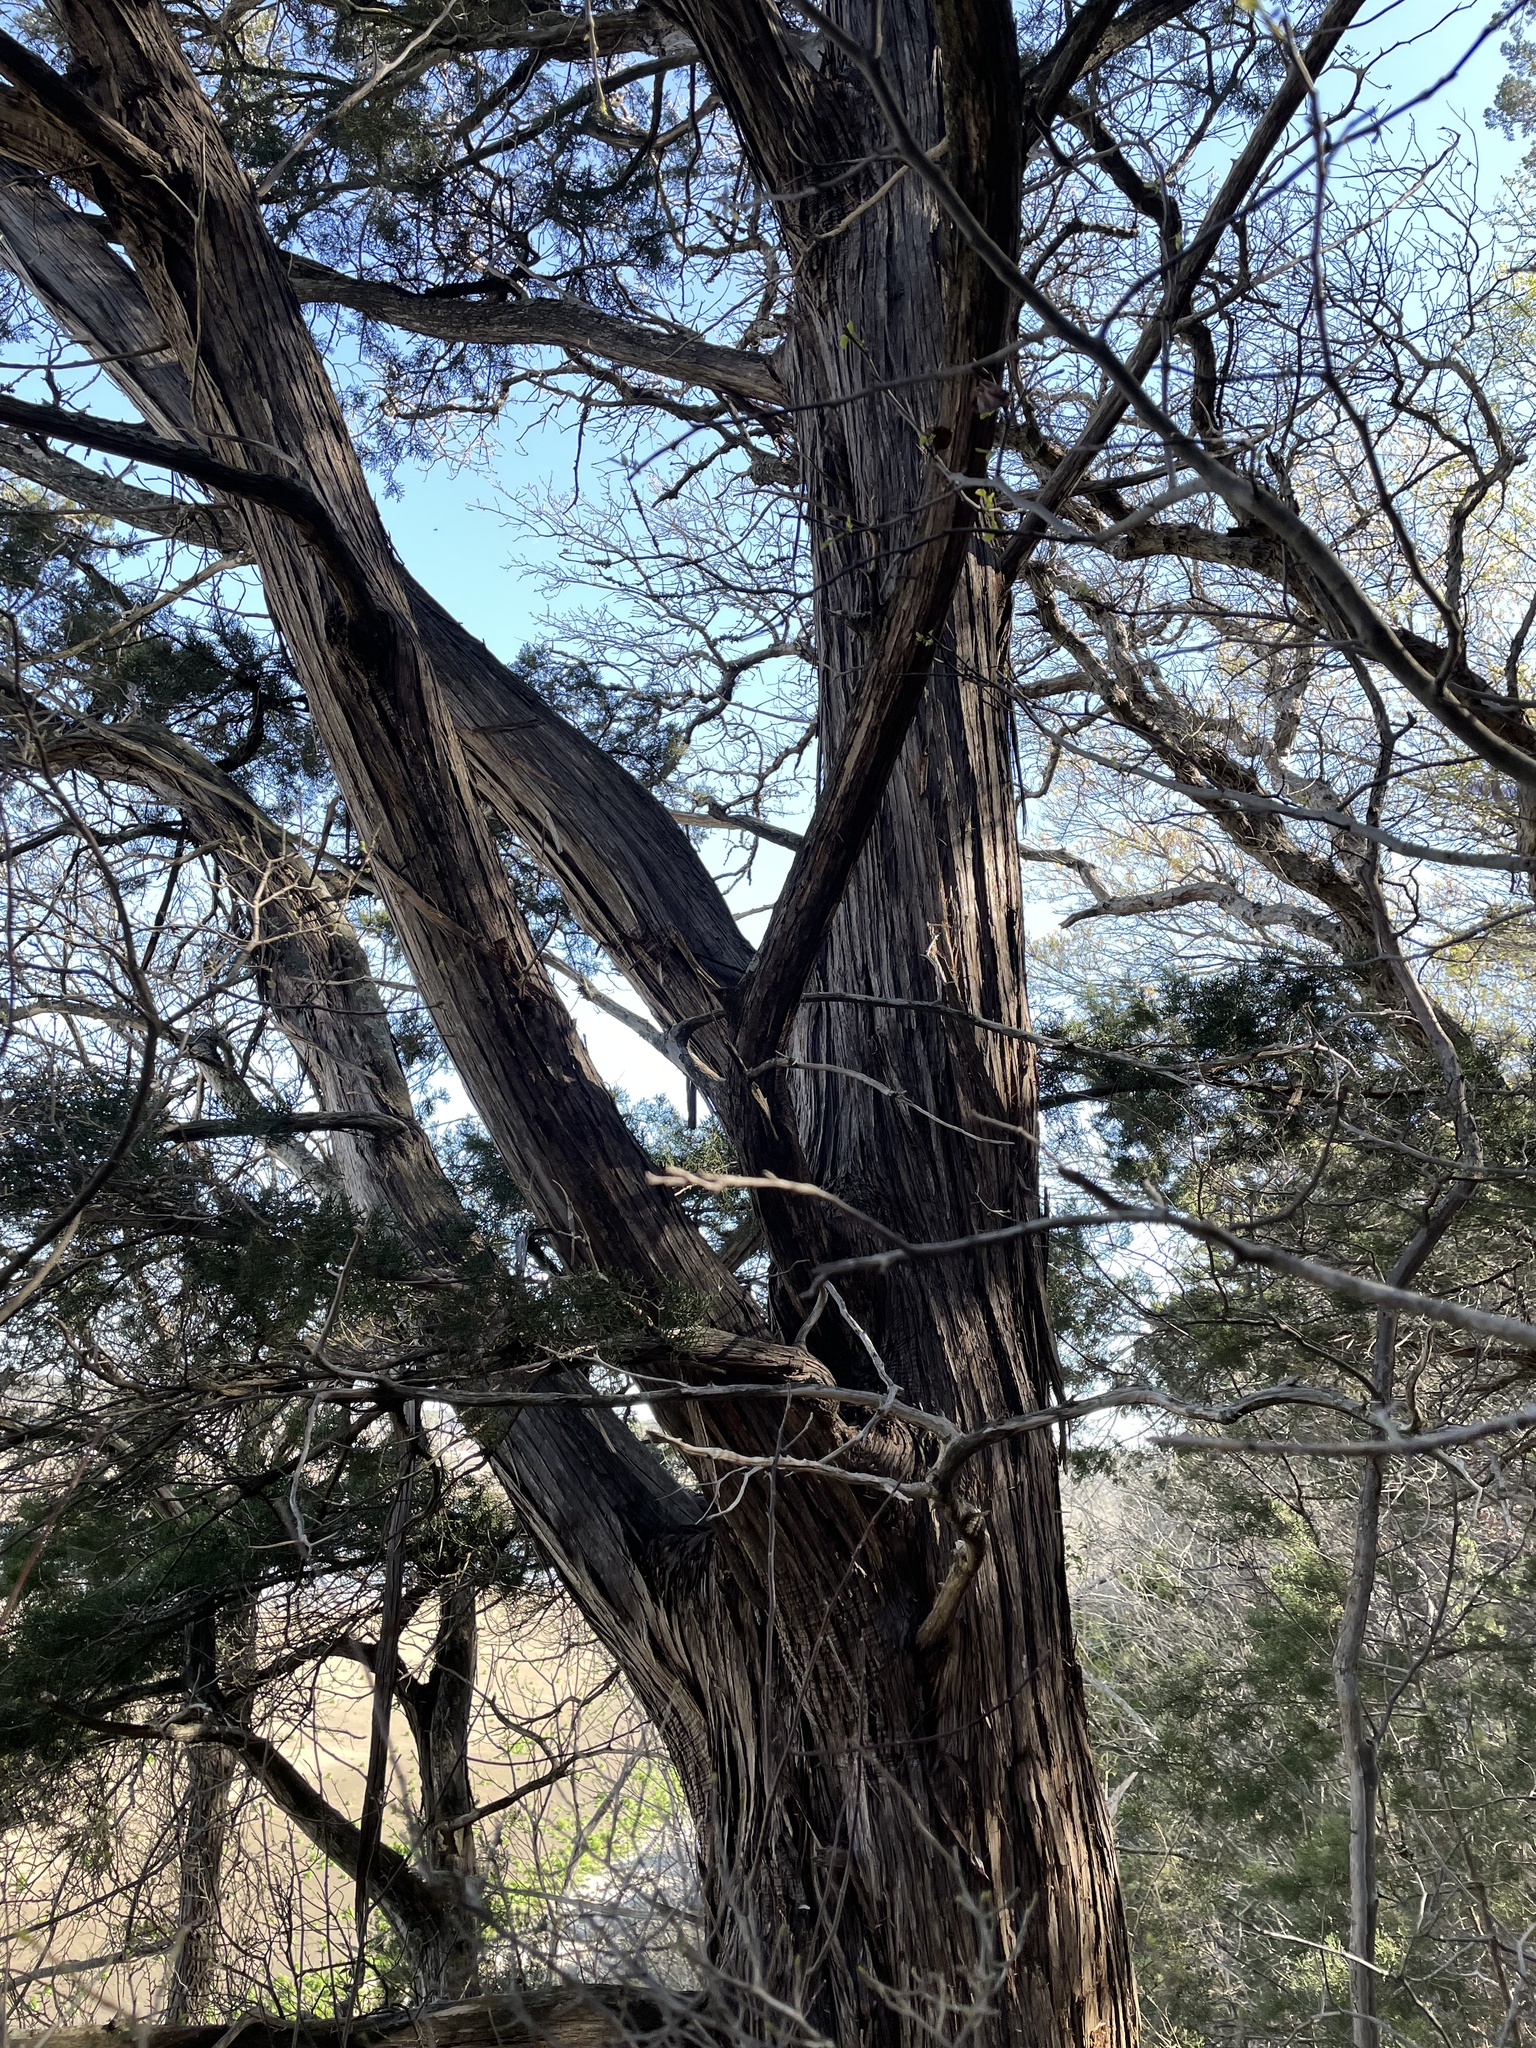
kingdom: Plantae
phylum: Tracheophyta
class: Pinopsida
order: Pinales
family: Cupressaceae
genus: Juniperus
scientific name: Juniperus ashei
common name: Mexican juniper
